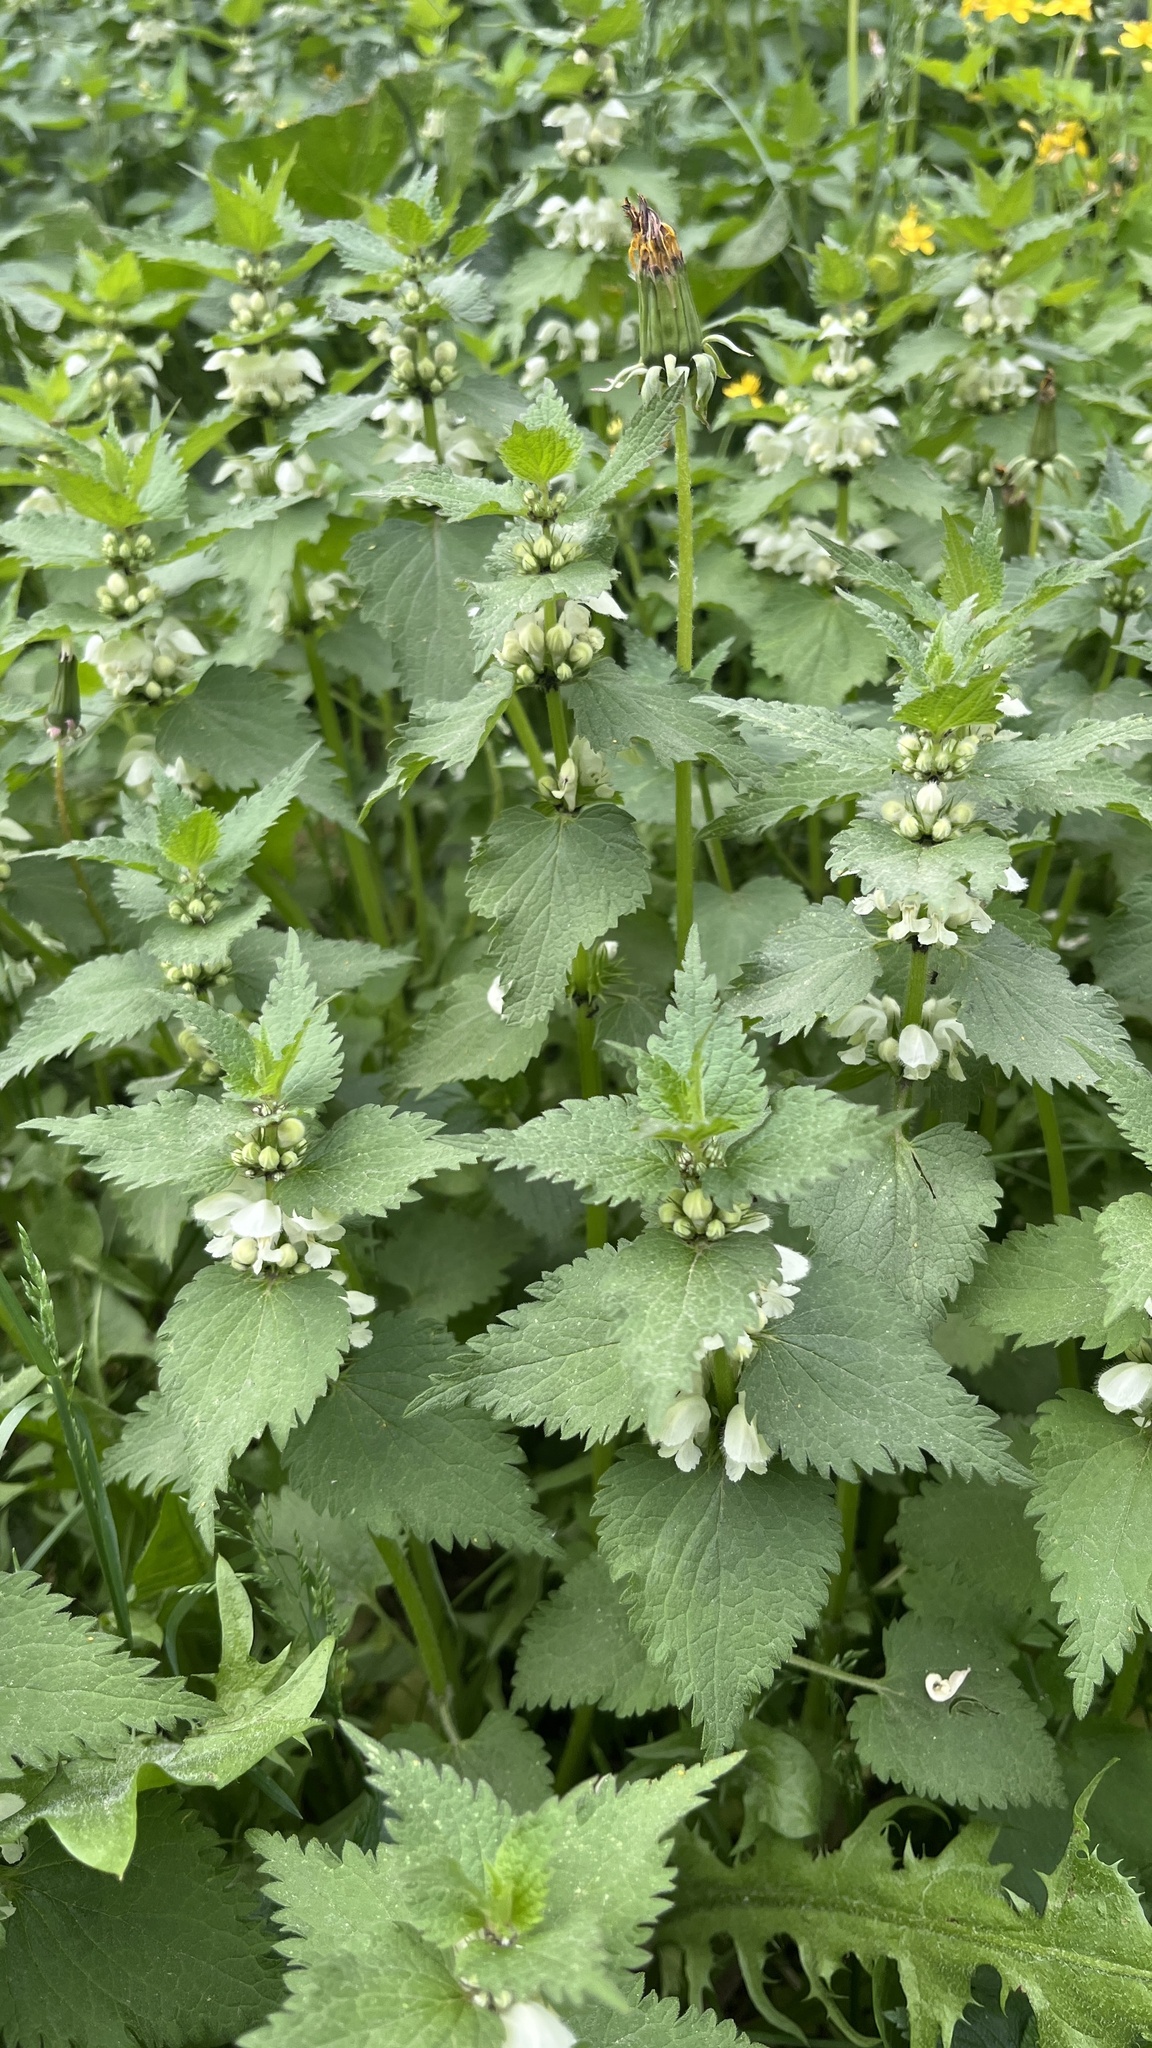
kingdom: Plantae
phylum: Tracheophyta
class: Magnoliopsida
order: Lamiales
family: Lamiaceae
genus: Lamium
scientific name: Lamium album
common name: White dead-nettle
